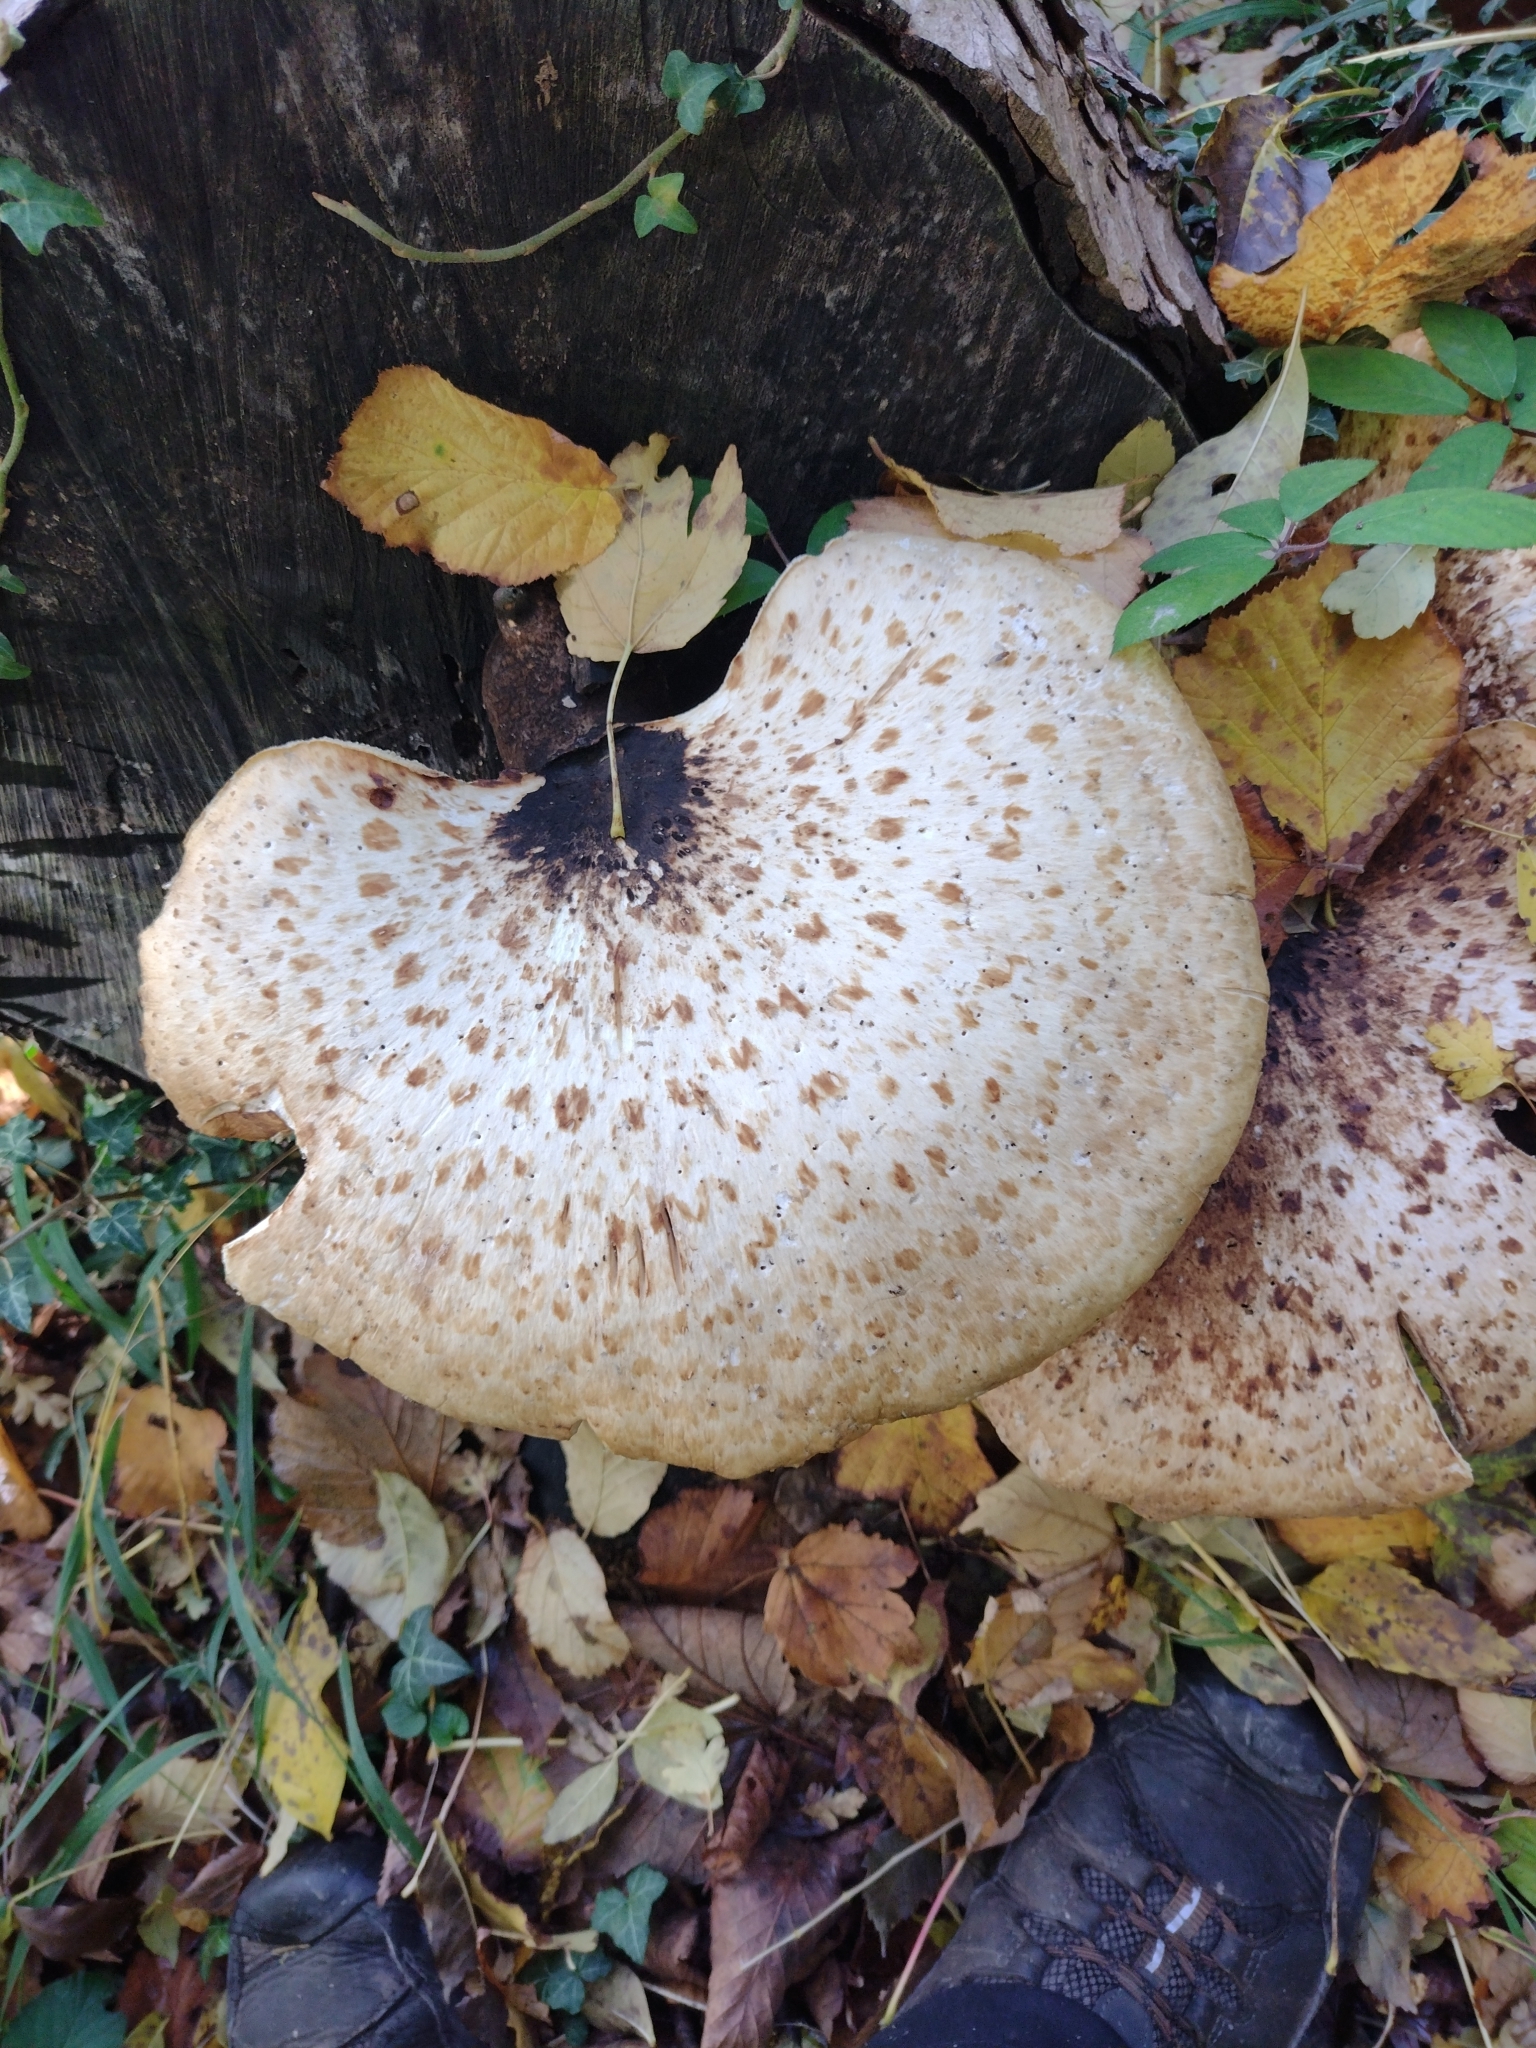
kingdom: Fungi
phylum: Basidiomycota
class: Agaricomycetes
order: Polyporales
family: Polyporaceae
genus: Cerioporus
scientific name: Cerioporus squamosus
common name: Dryad's saddle
